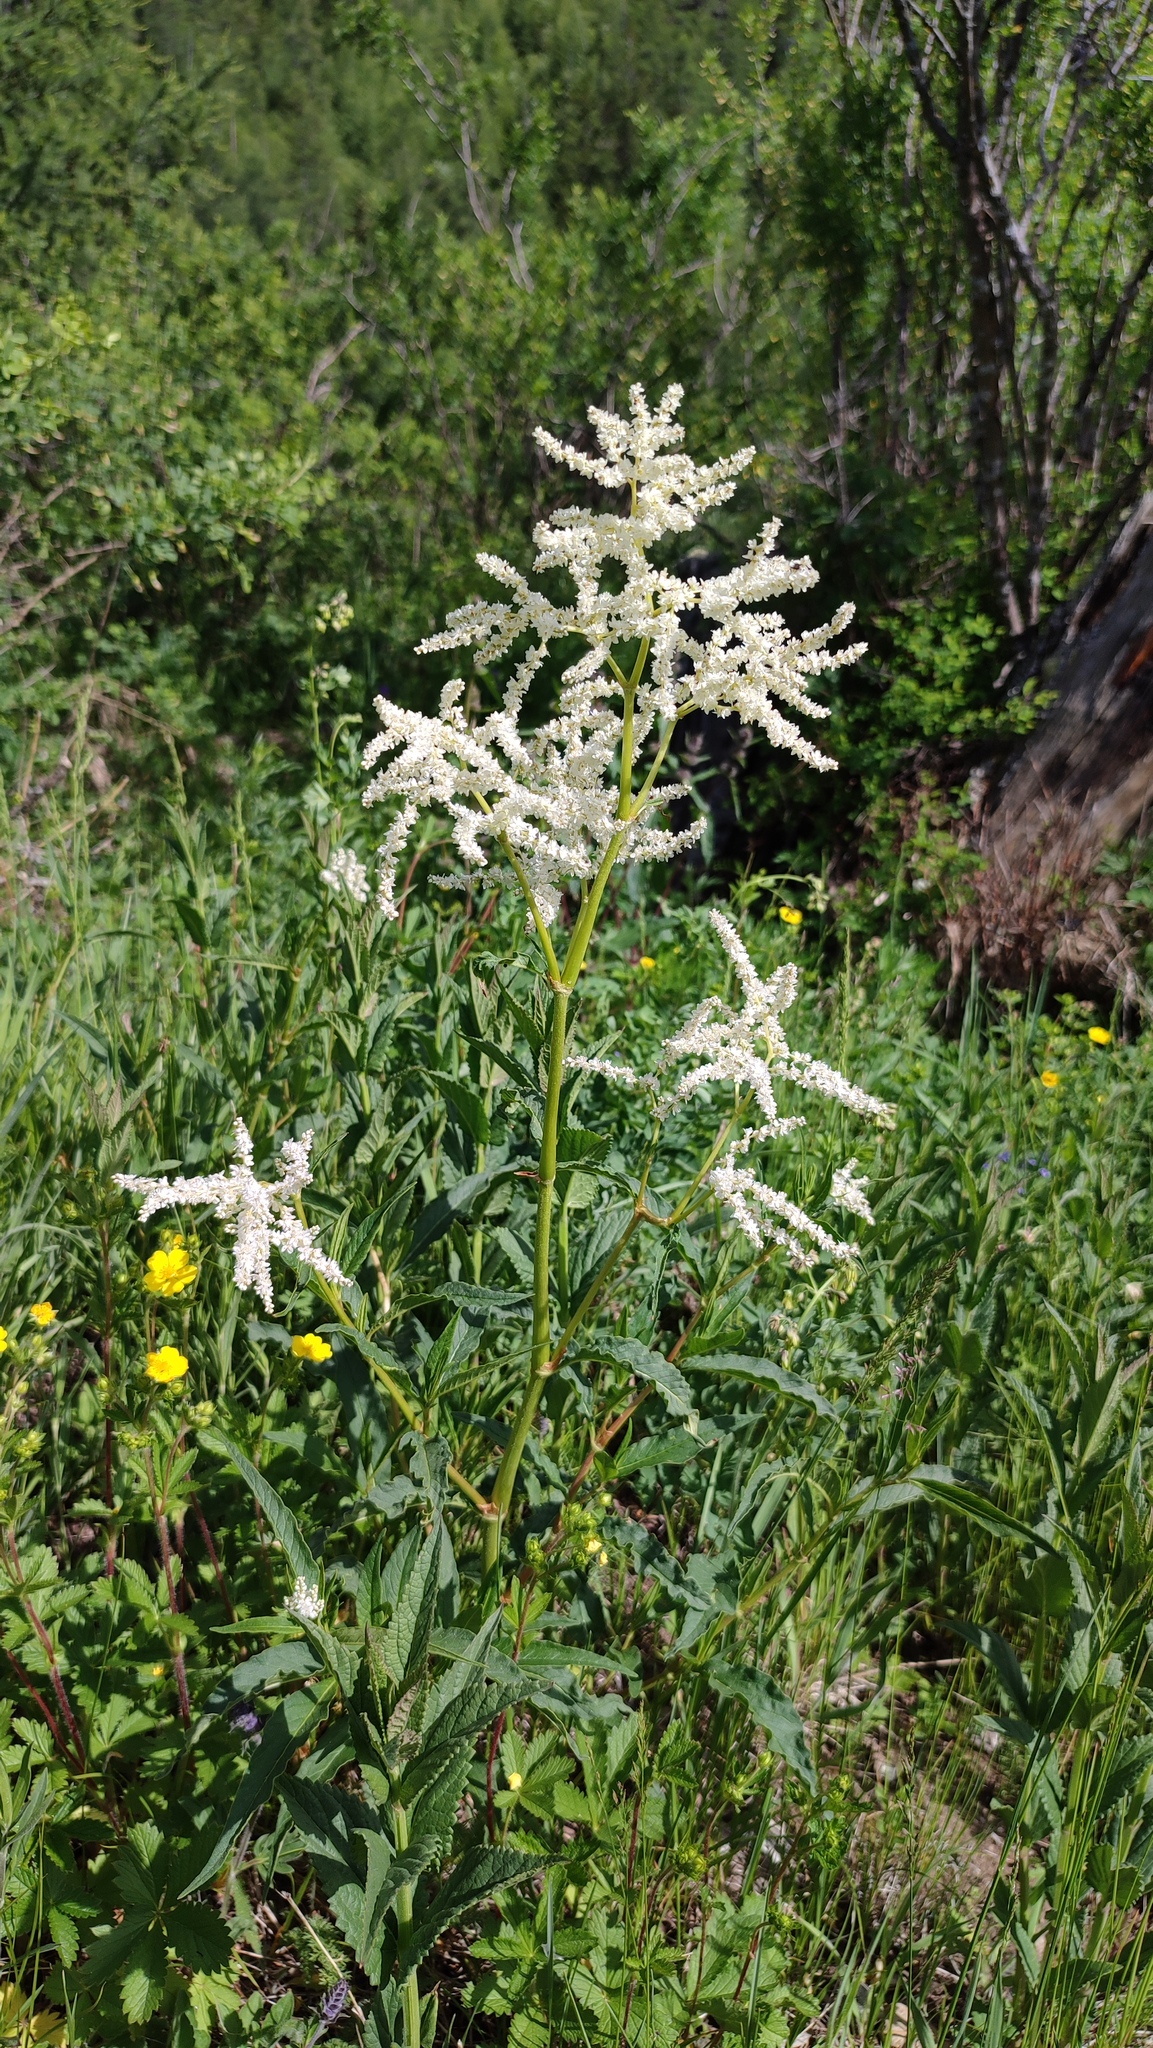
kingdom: Plantae
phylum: Tracheophyta
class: Magnoliopsida
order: Caryophyllales
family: Polygonaceae
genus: Koenigia
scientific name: Koenigia alpina
